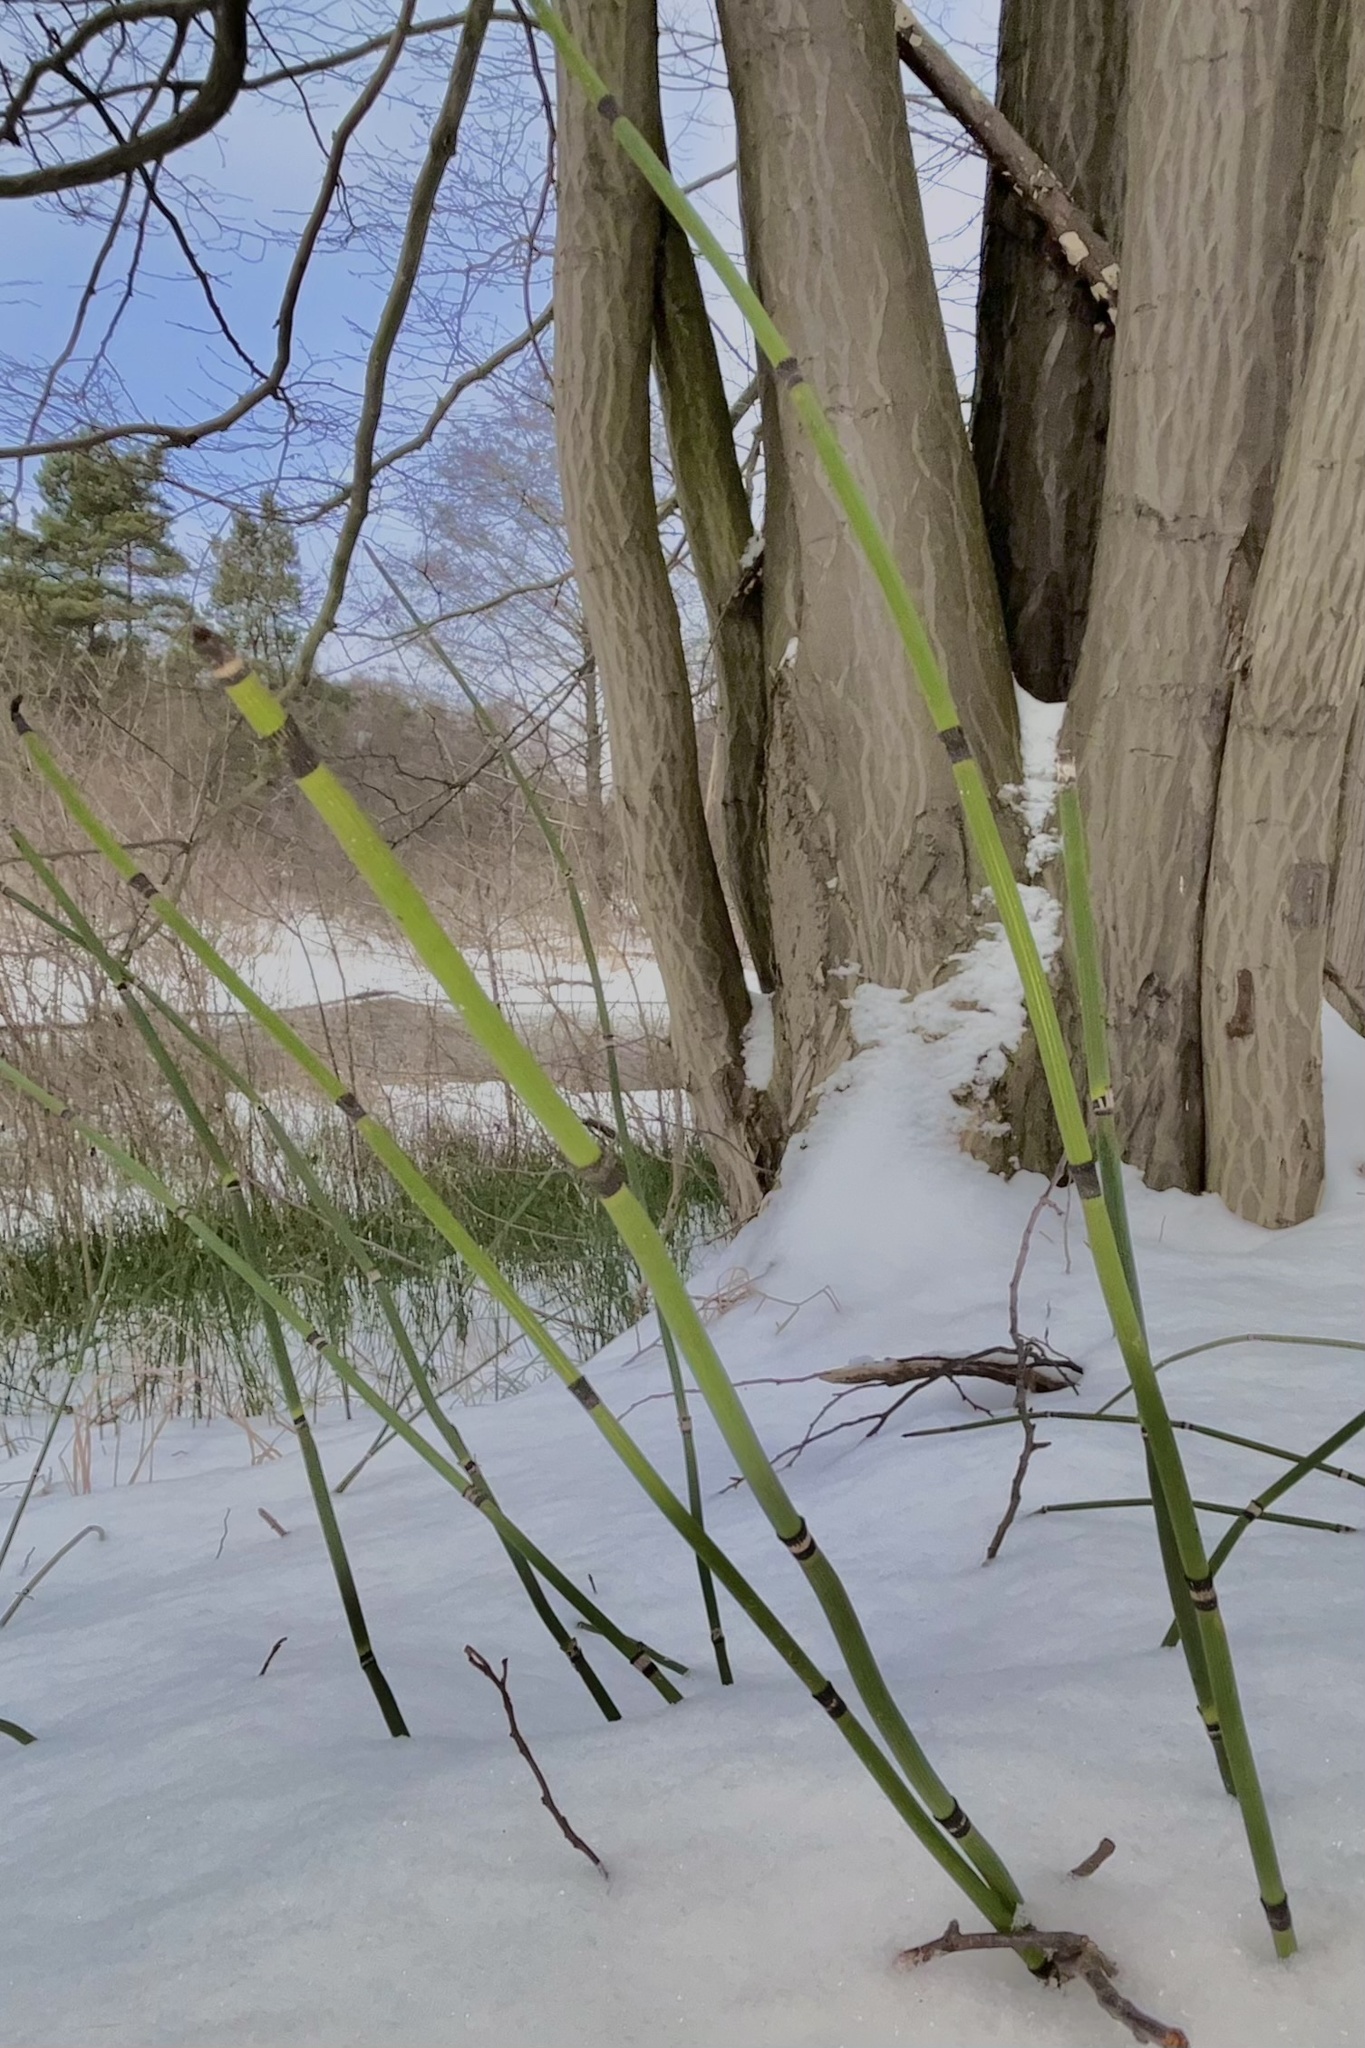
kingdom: Plantae
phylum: Tracheophyta
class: Polypodiopsida
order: Equisetales
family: Equisetaceae
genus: Equisetum
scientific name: Equisetum hyemale
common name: Rough horsetail
